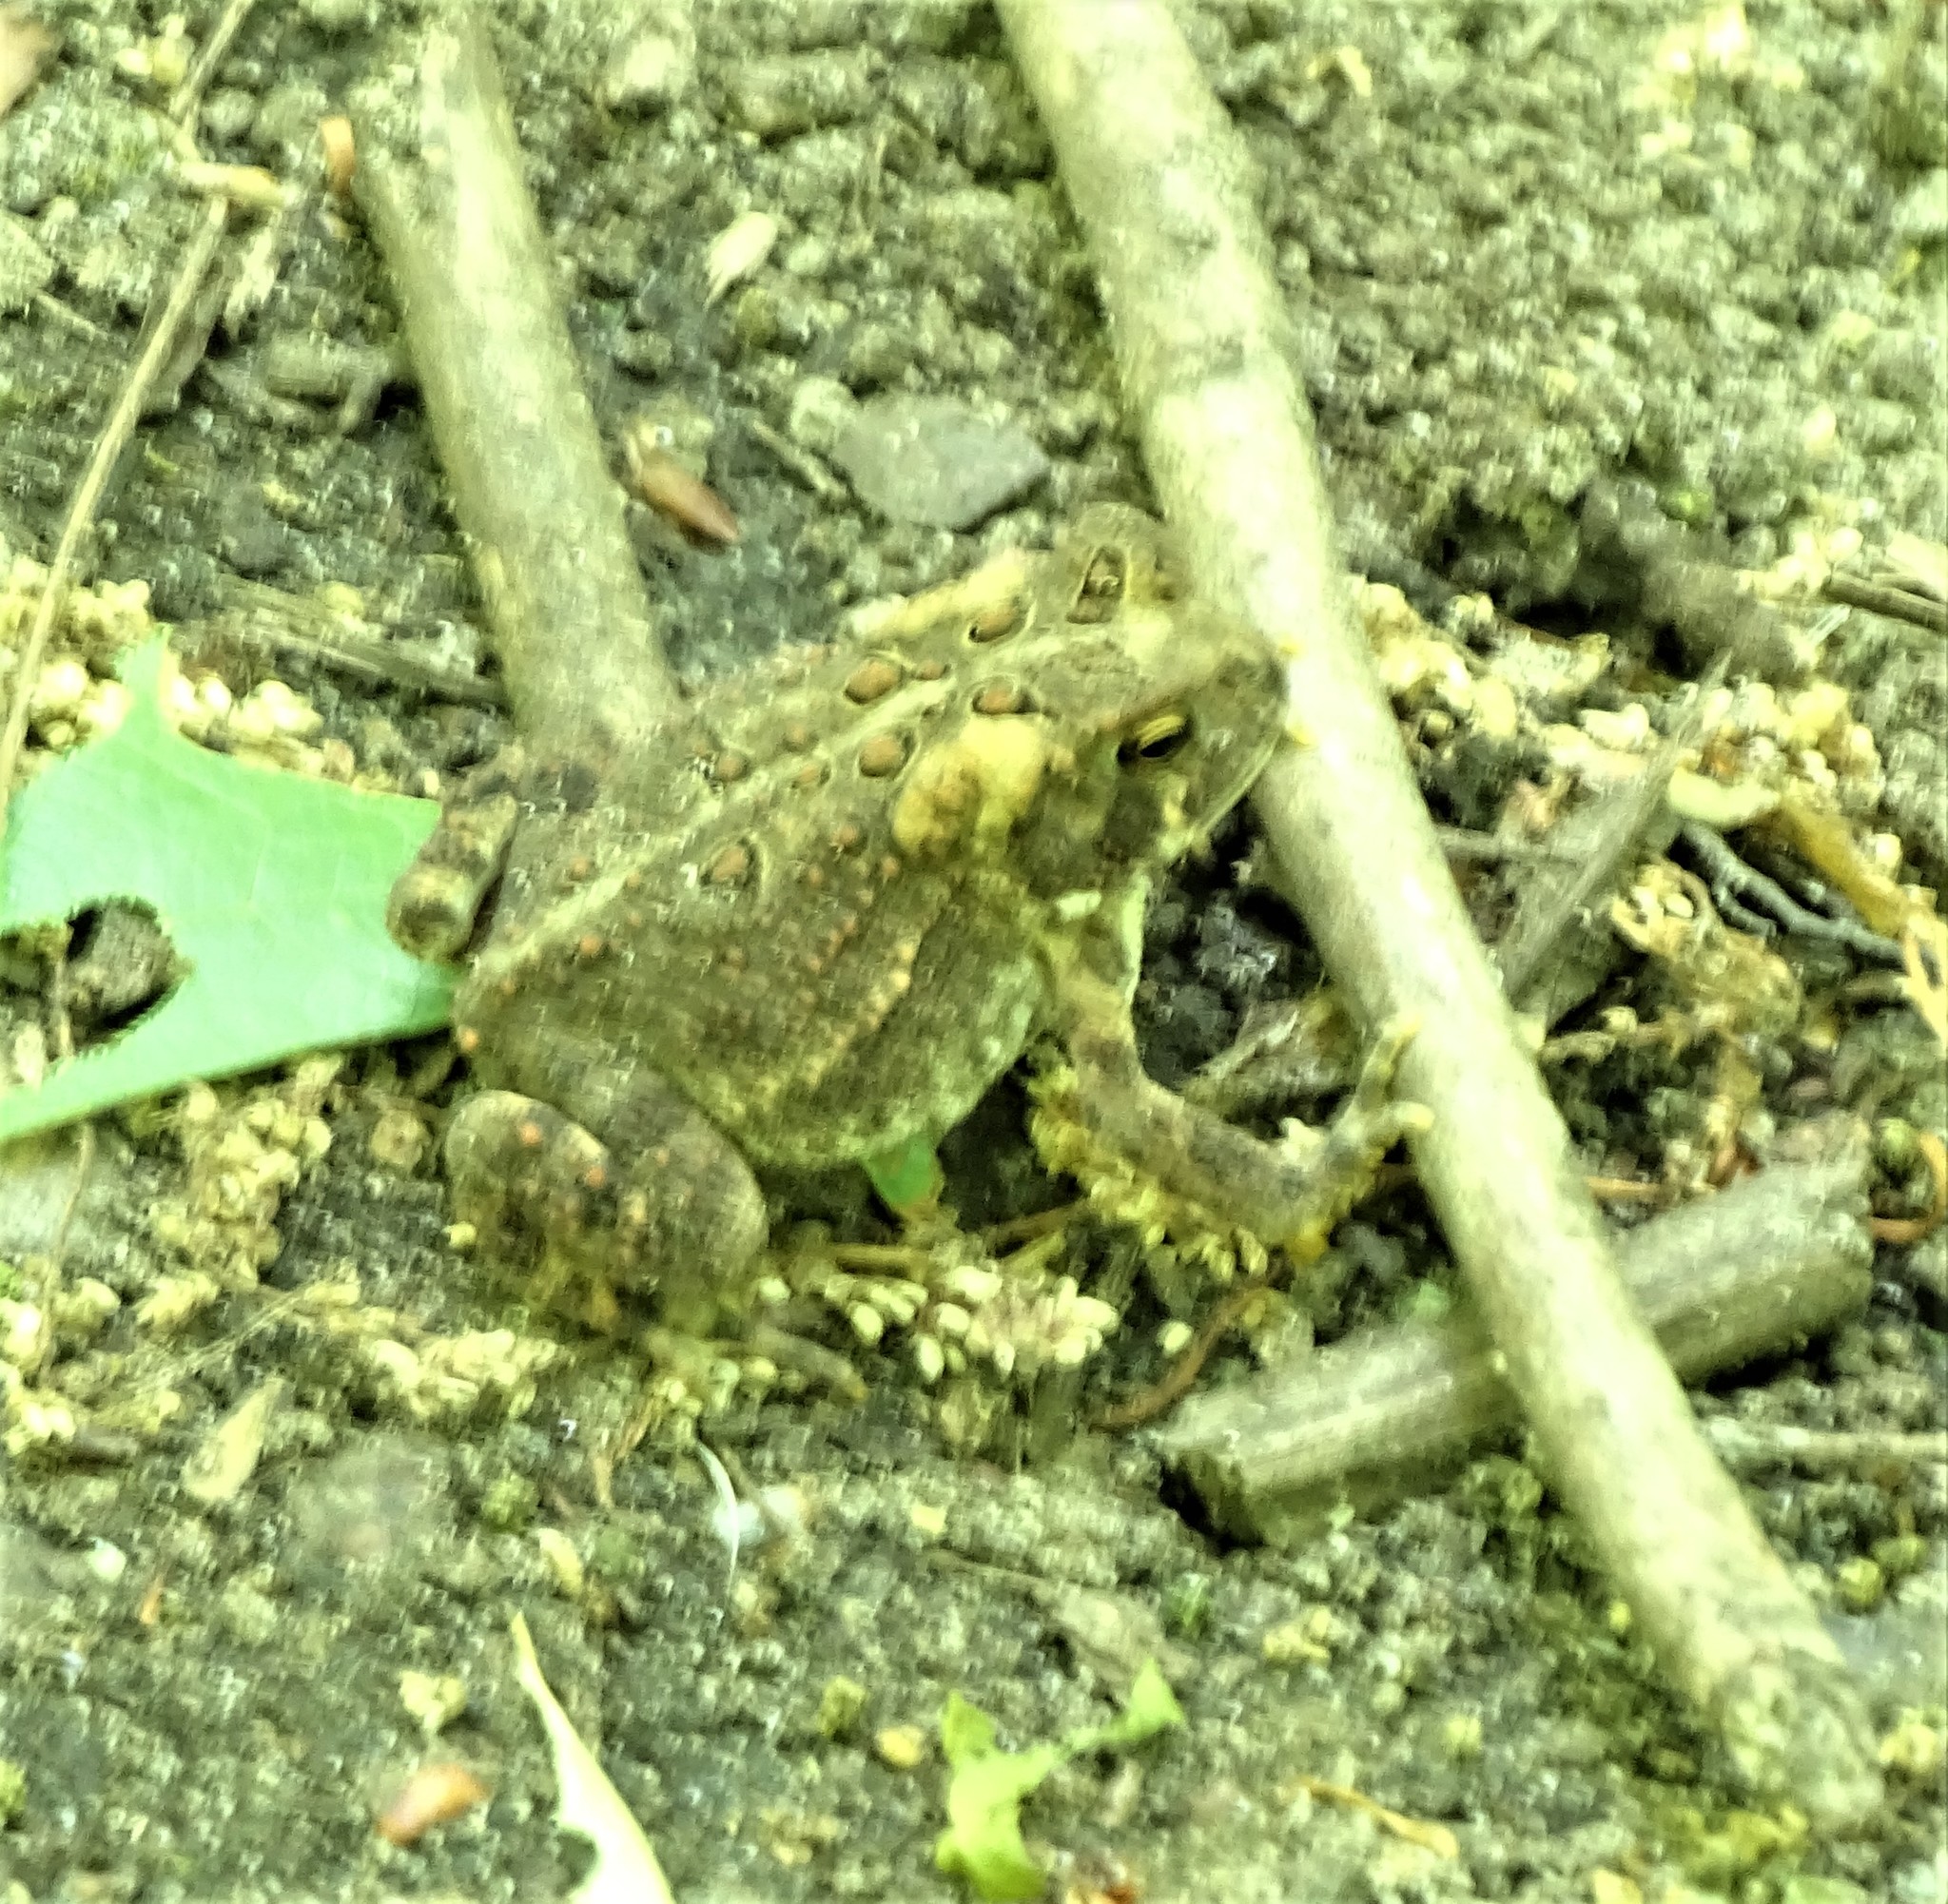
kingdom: Animalia
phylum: Chordata
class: Amphibia
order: Anura
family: Bufonidae
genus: Anaxyrus
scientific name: Anaxyrus americanus
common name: American toad
